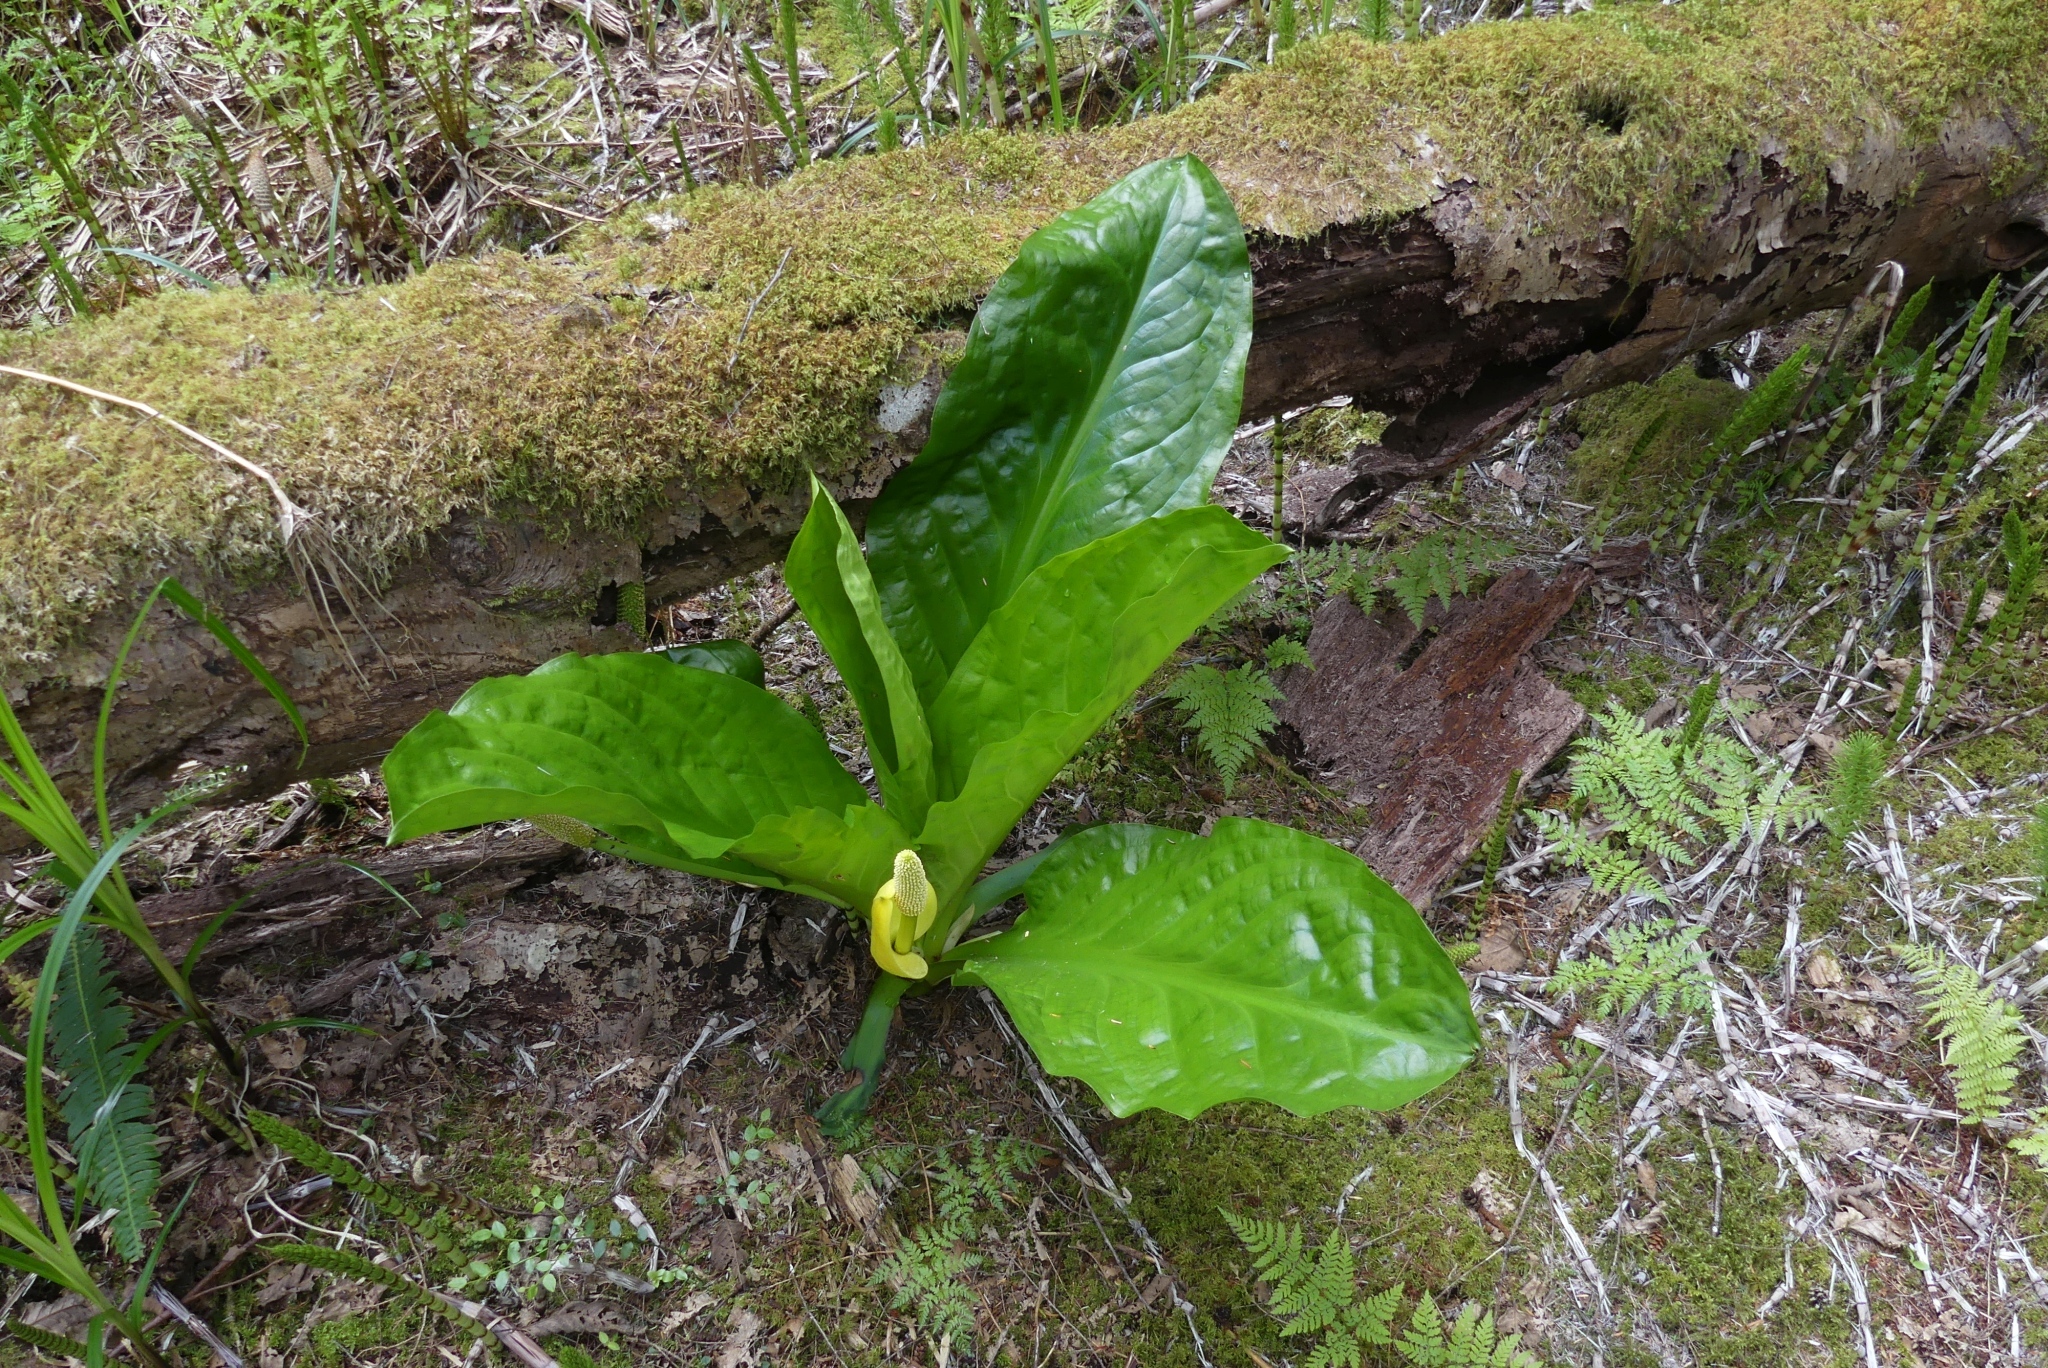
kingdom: Plantae
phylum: Tracheophyta
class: Liliopsida
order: Alismatales
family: Araceae
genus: Lysichiton
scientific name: Lysichiton americanus
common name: American skunk cabbage
